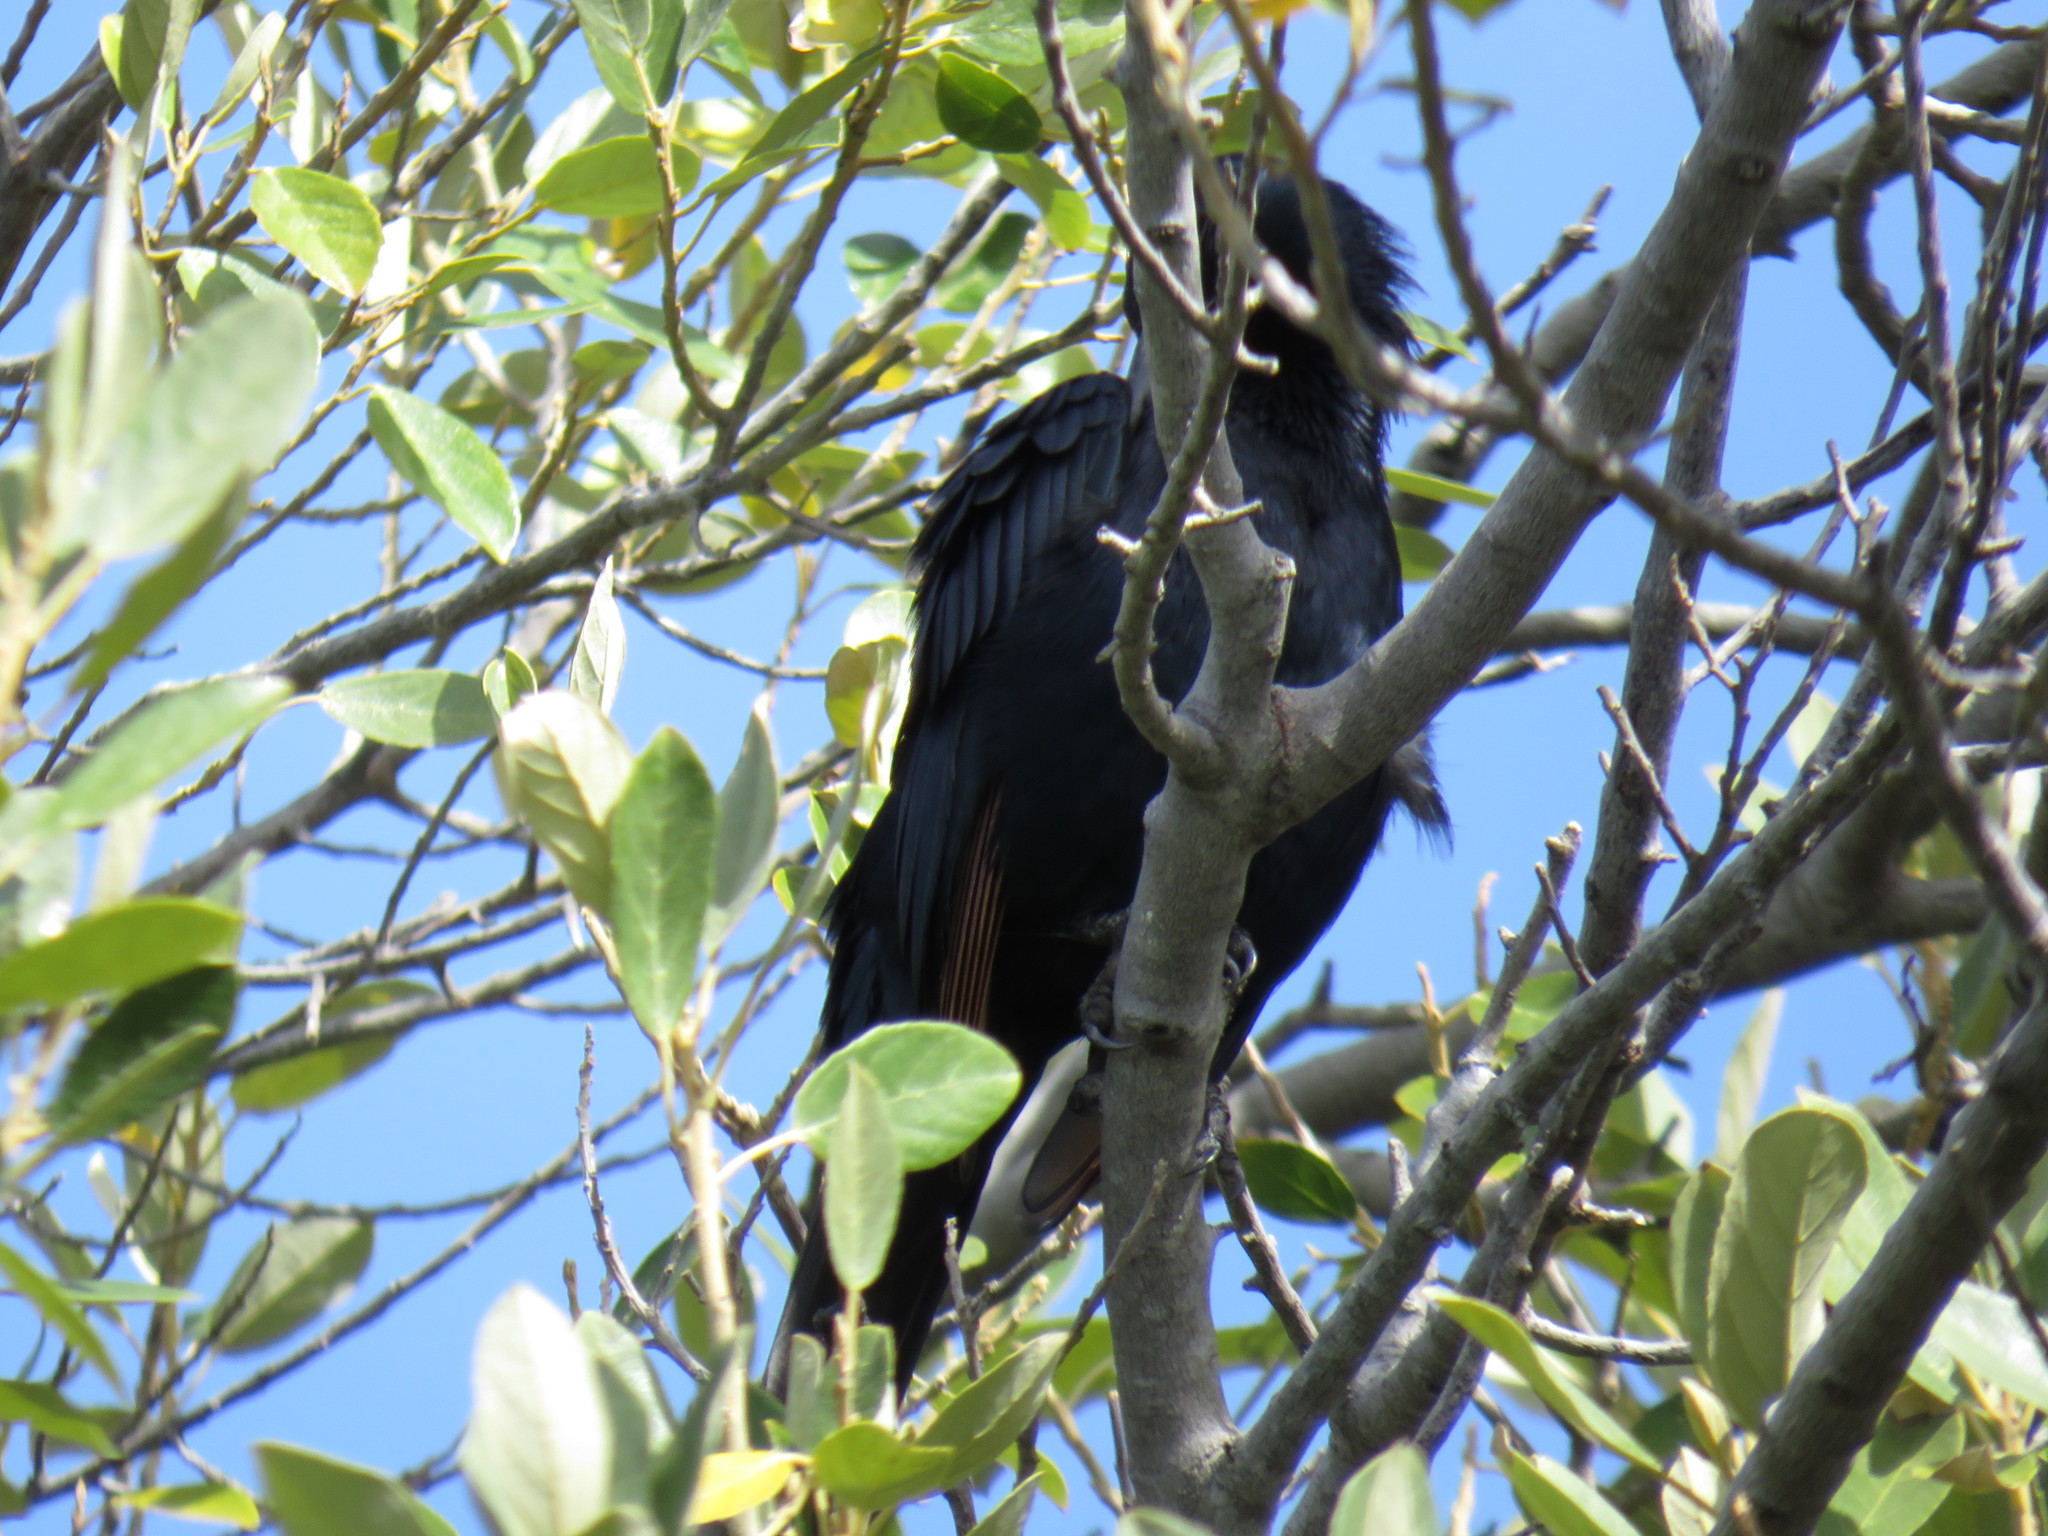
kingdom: Animalia
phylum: Chordata
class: Aves
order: Passeriformes
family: Sturnidae
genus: Onychognathus
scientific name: Onychognathus morio
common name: Red-winged starling
